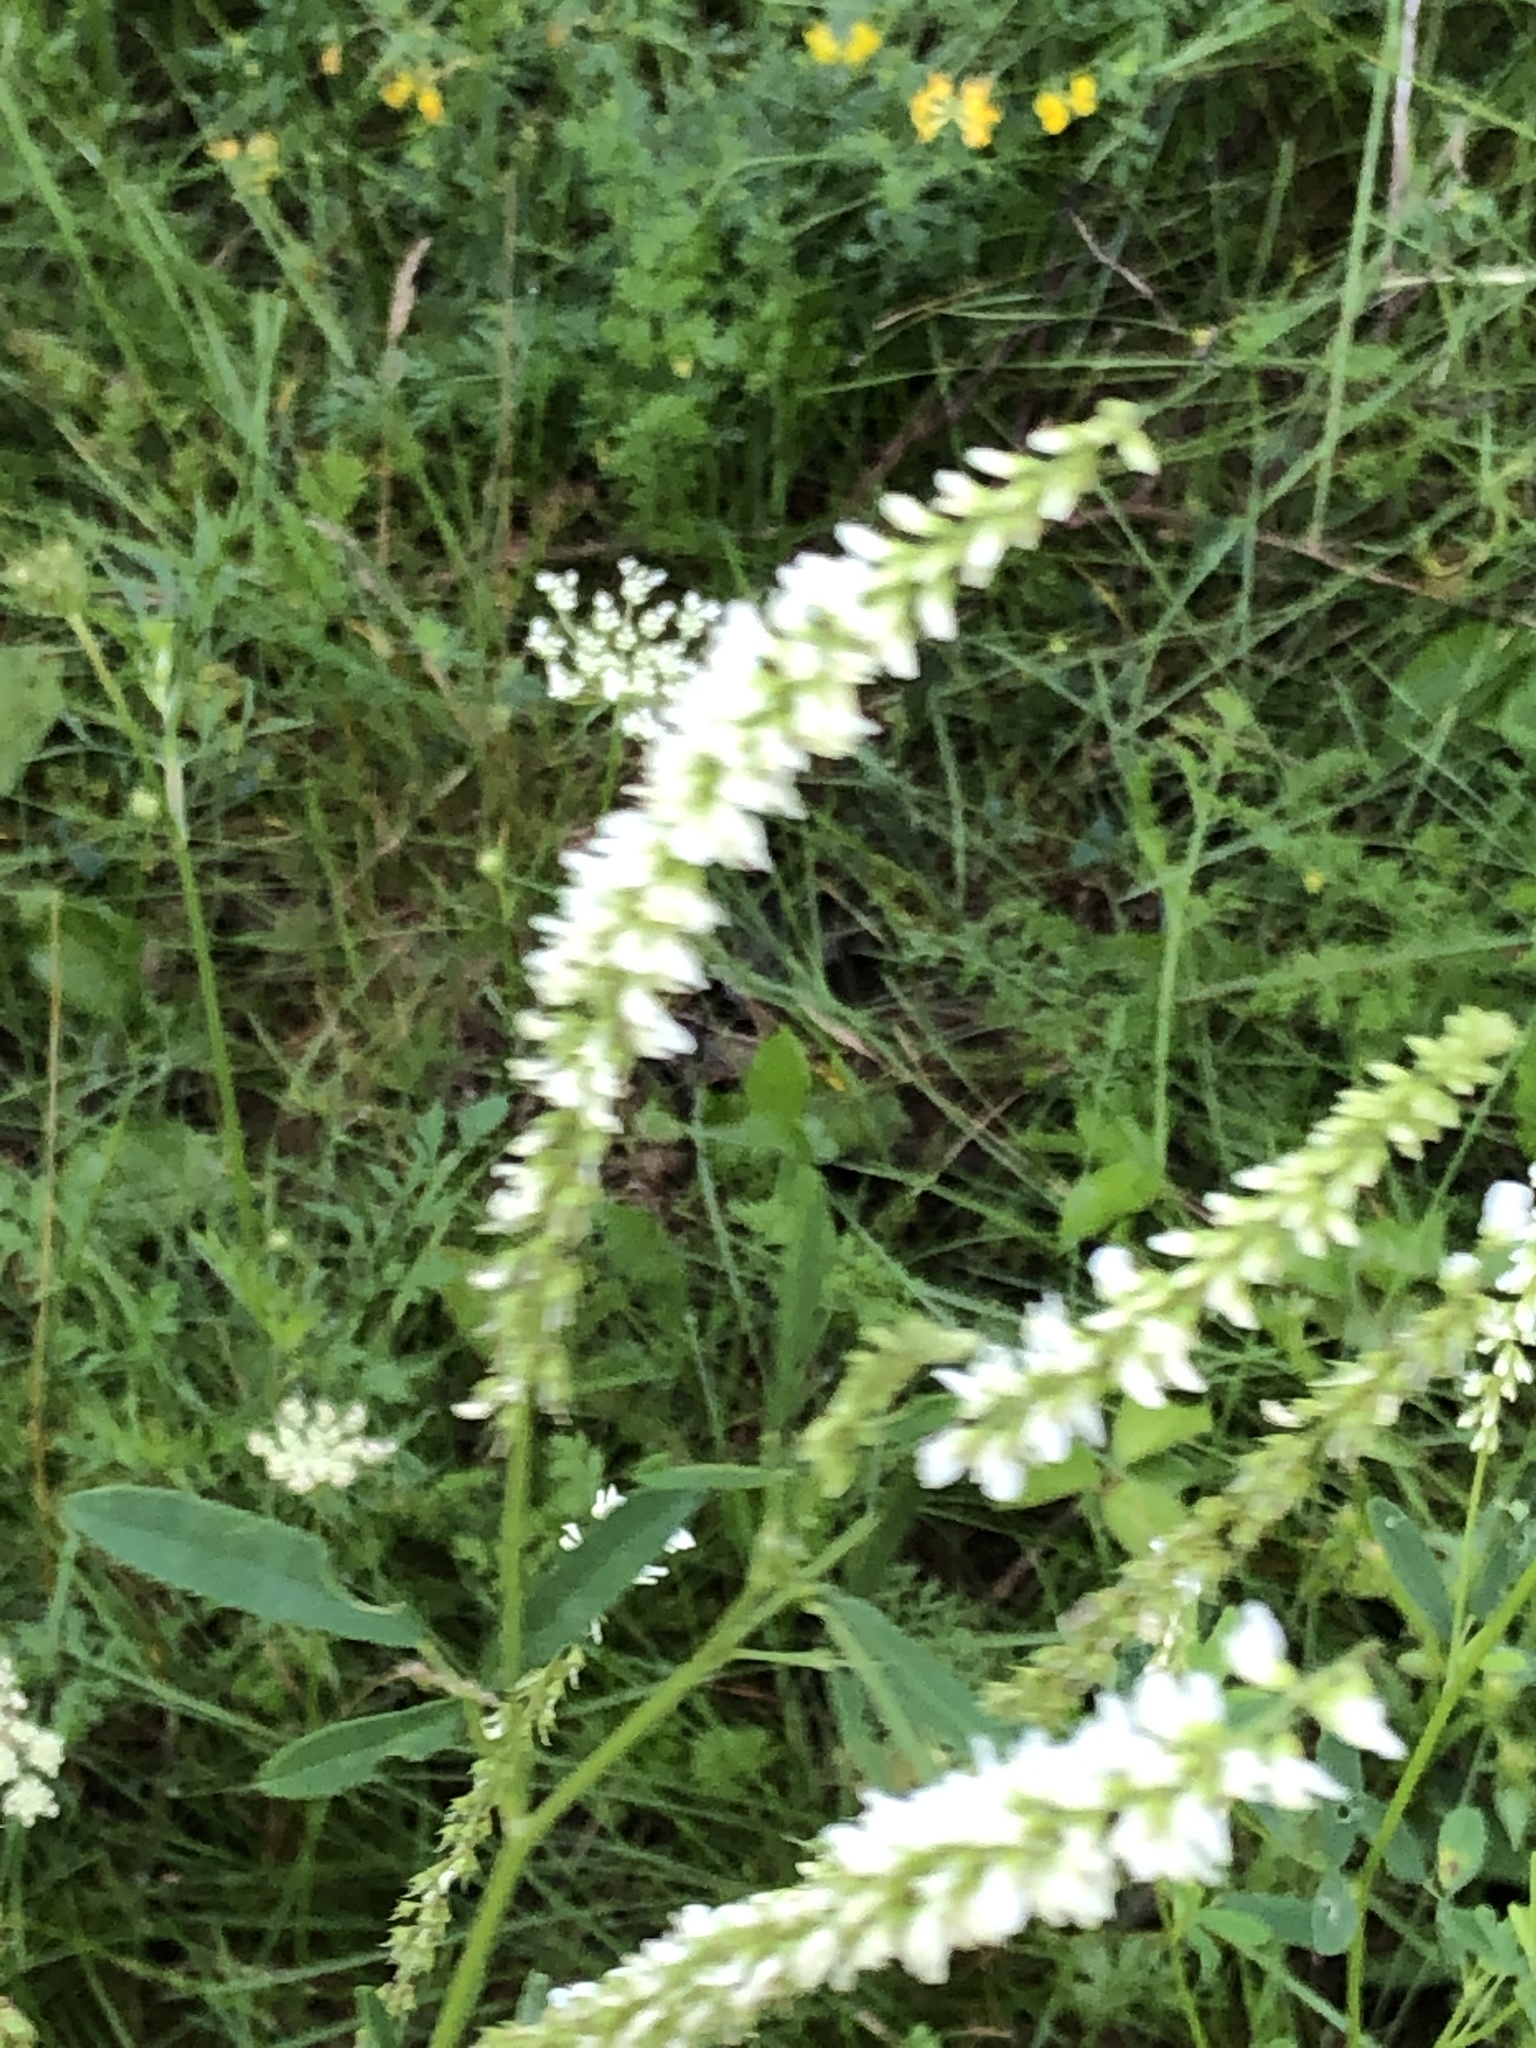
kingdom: Plantae
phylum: Tracheophyta
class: Magnoliopsida
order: Fabales
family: Fabaceae
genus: Melilotus
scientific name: Melilotus albus
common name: White melilot
